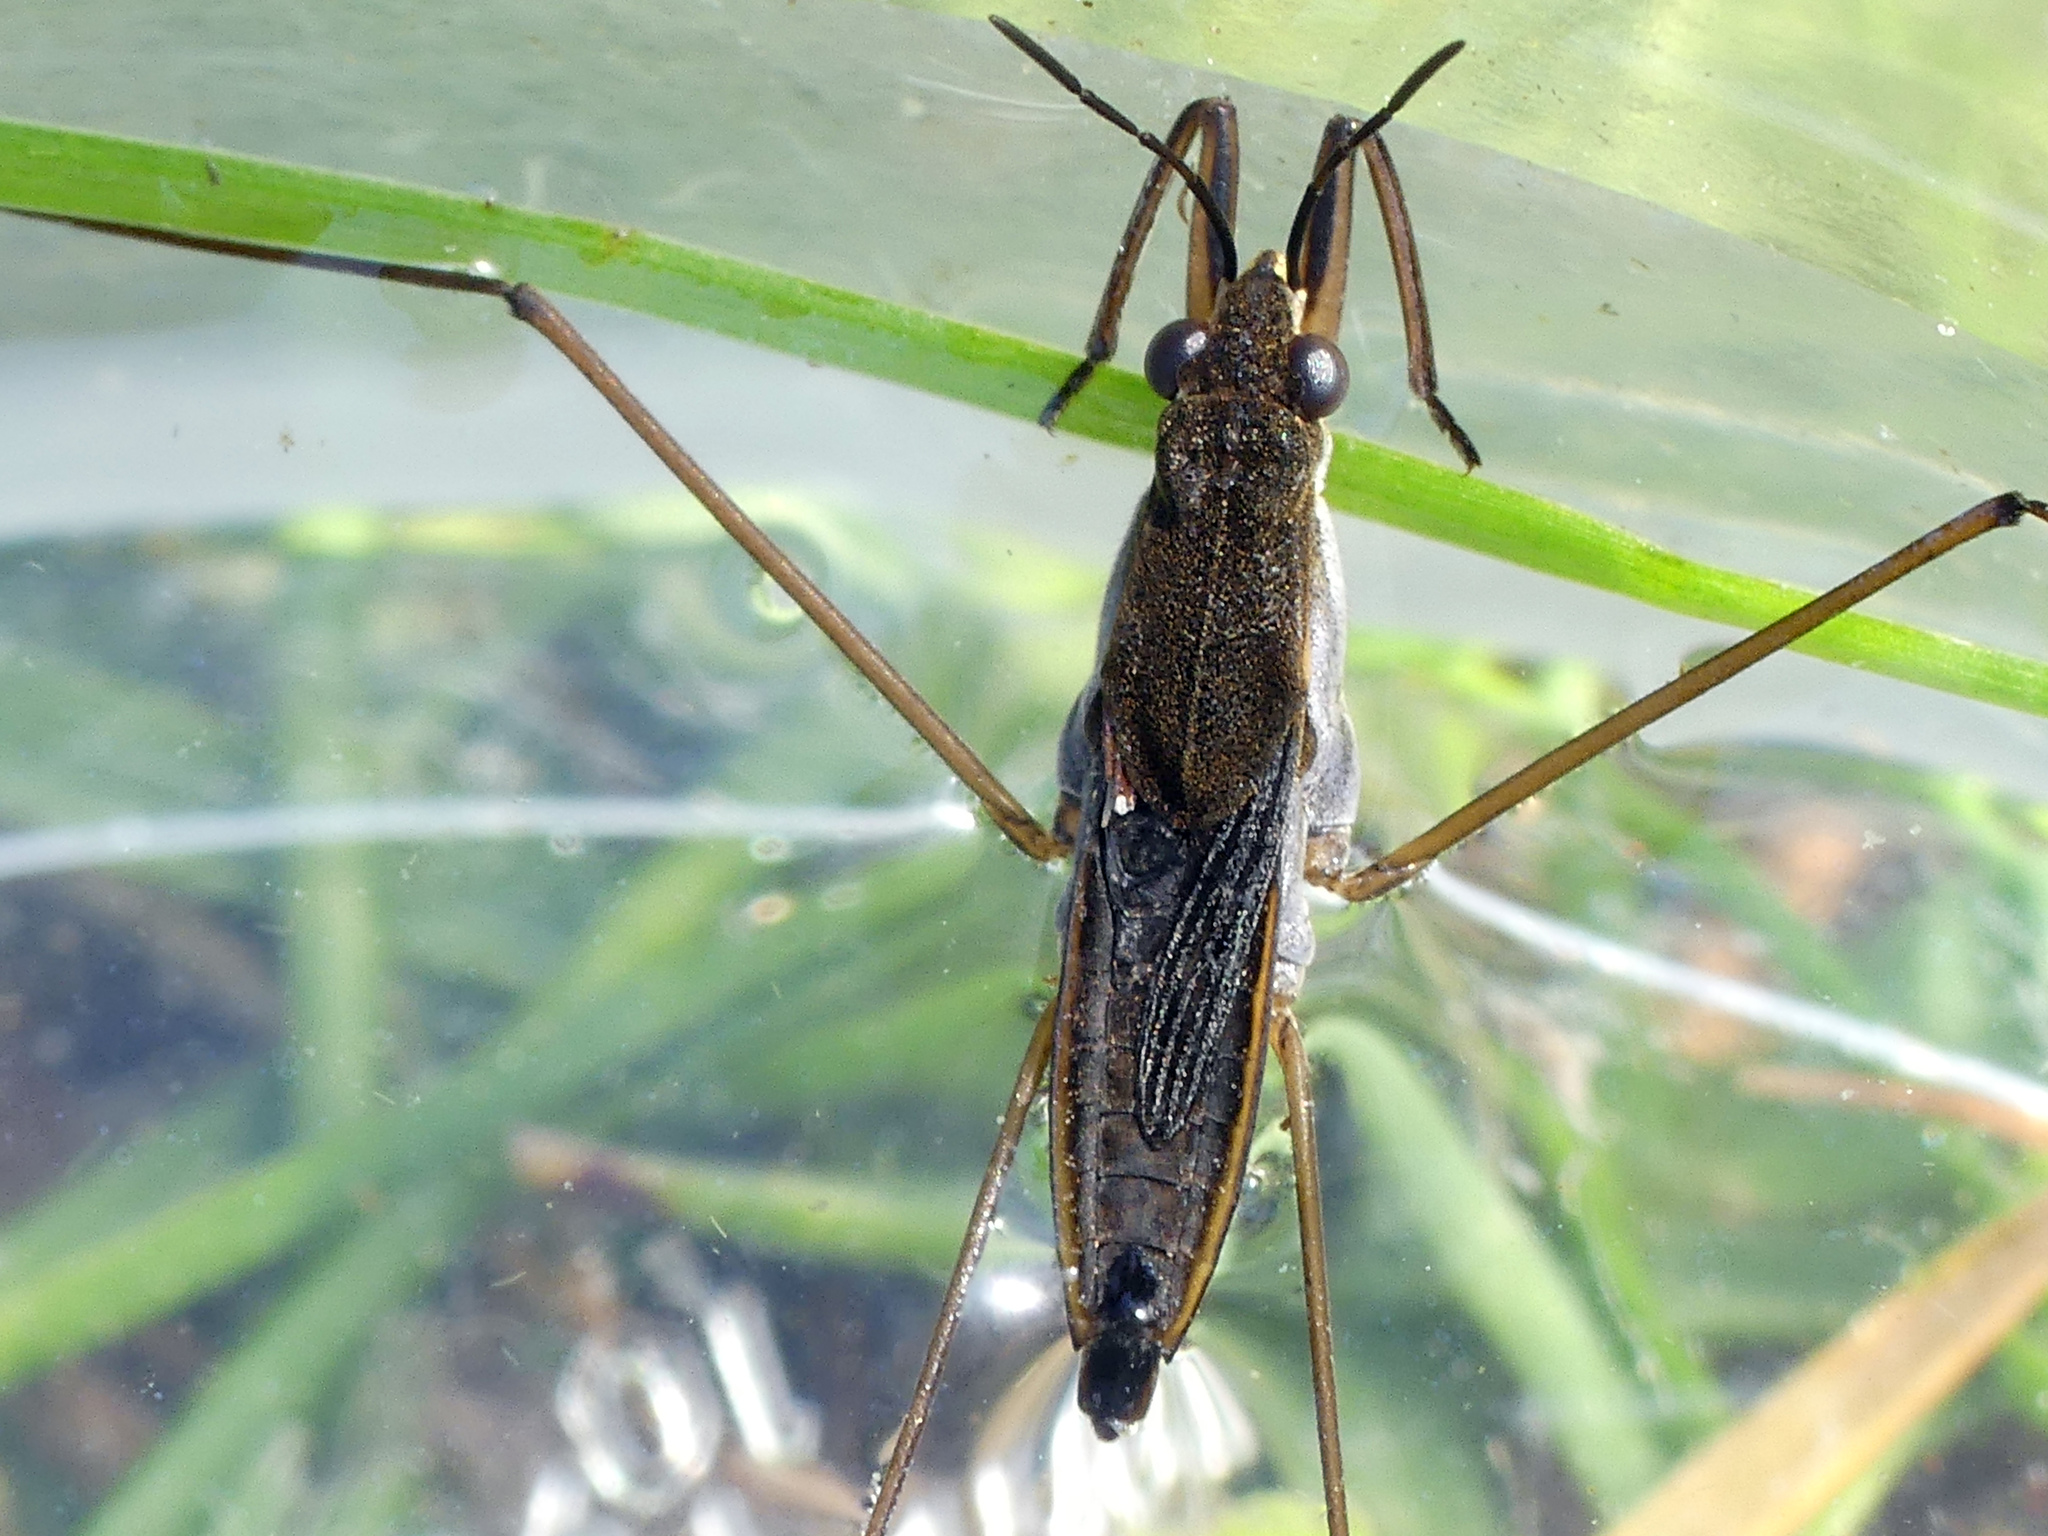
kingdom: Animalia
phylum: Arthropoda
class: Insecta
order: Hemiptera
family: Gerridae
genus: Gerris
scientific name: Gerris
